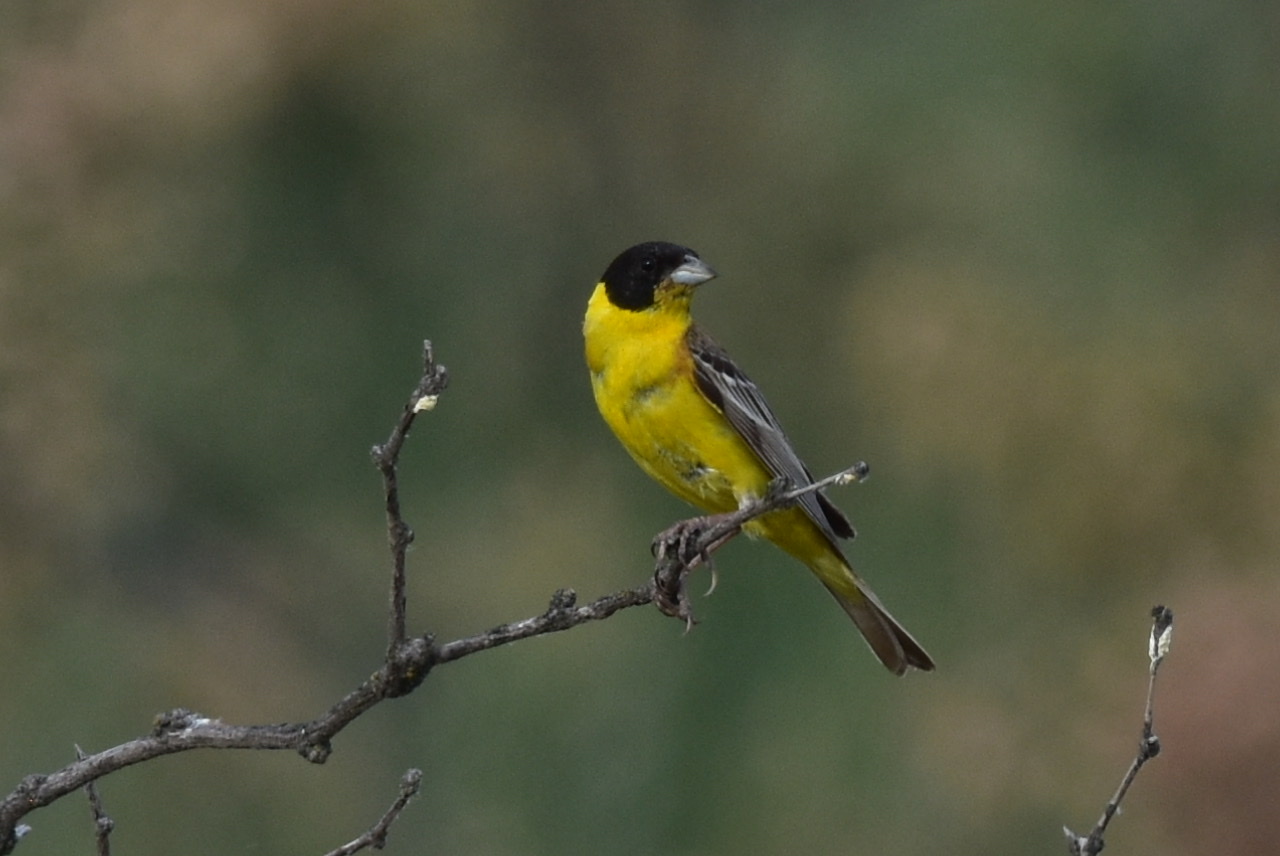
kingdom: Animalia
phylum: Chordata
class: Aves
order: Passeriformes
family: Emberizidae
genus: Emberiza
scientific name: Emberiza melanocephala
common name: Black-headed bunting
